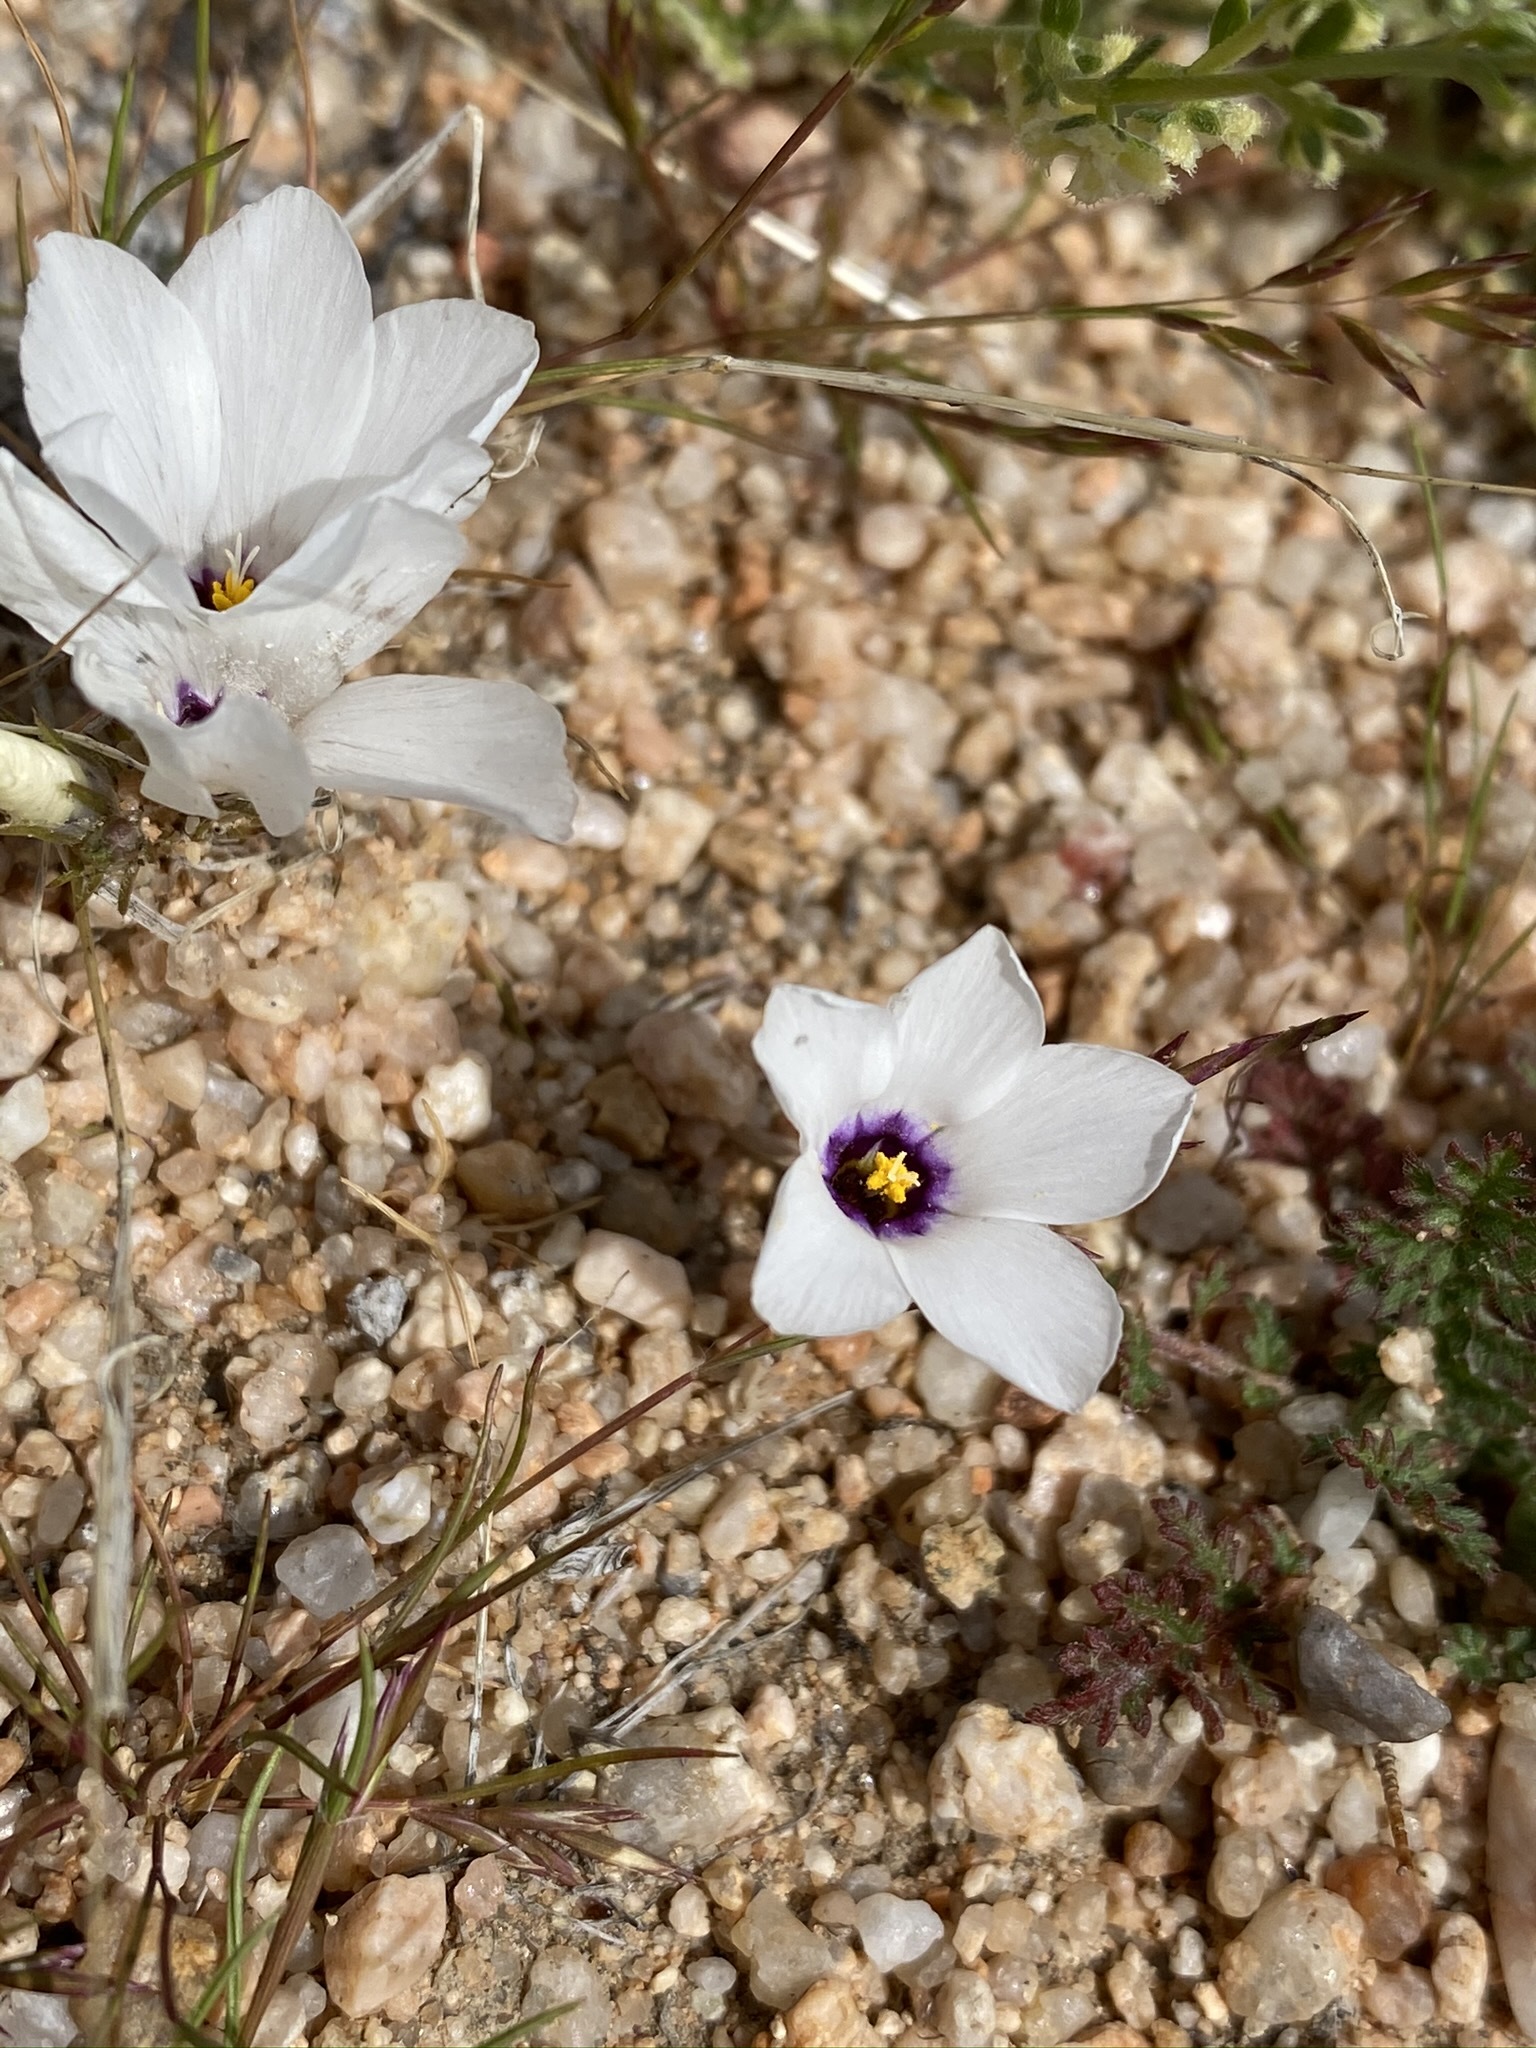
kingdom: Plantae
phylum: Tracheophyta
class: Magnoliopsida
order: Ericales
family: Polemoniaceae
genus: Linanthus
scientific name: Linanthus parryae
